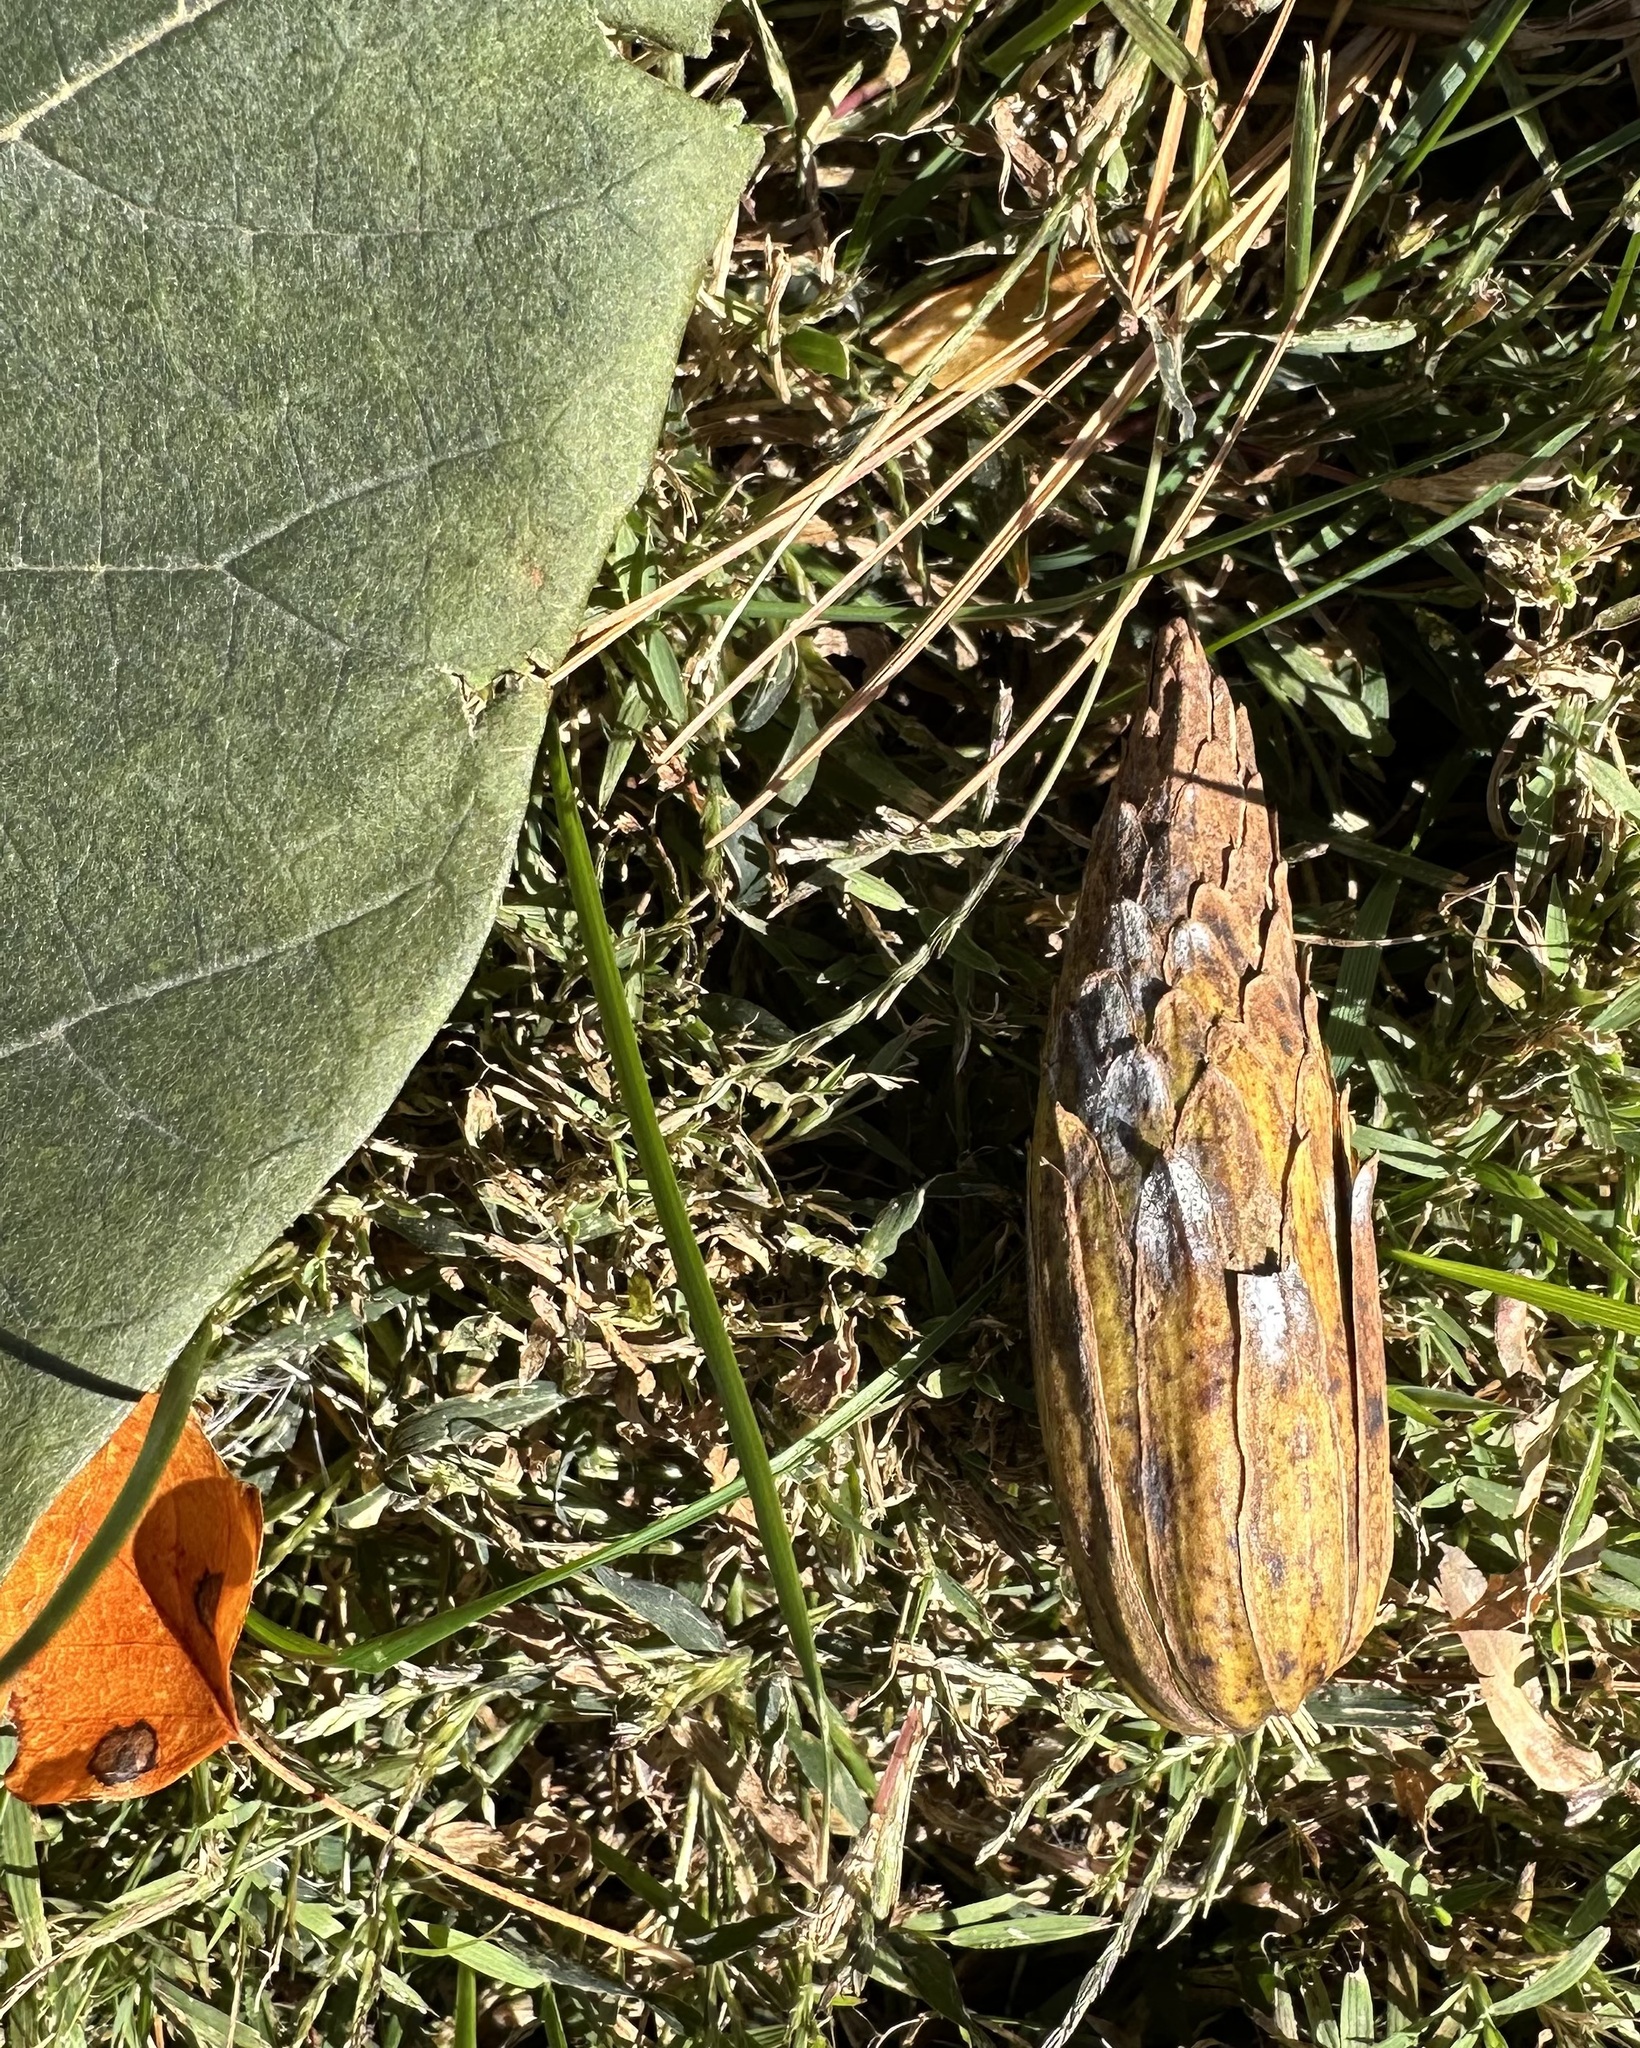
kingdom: Plantae
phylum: Tracheophyta
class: Magnoliopsida
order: Magnoliales
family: Magnoliaceae
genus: Liriodendron
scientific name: Liriodendron tulipifera
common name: Tulip tree
